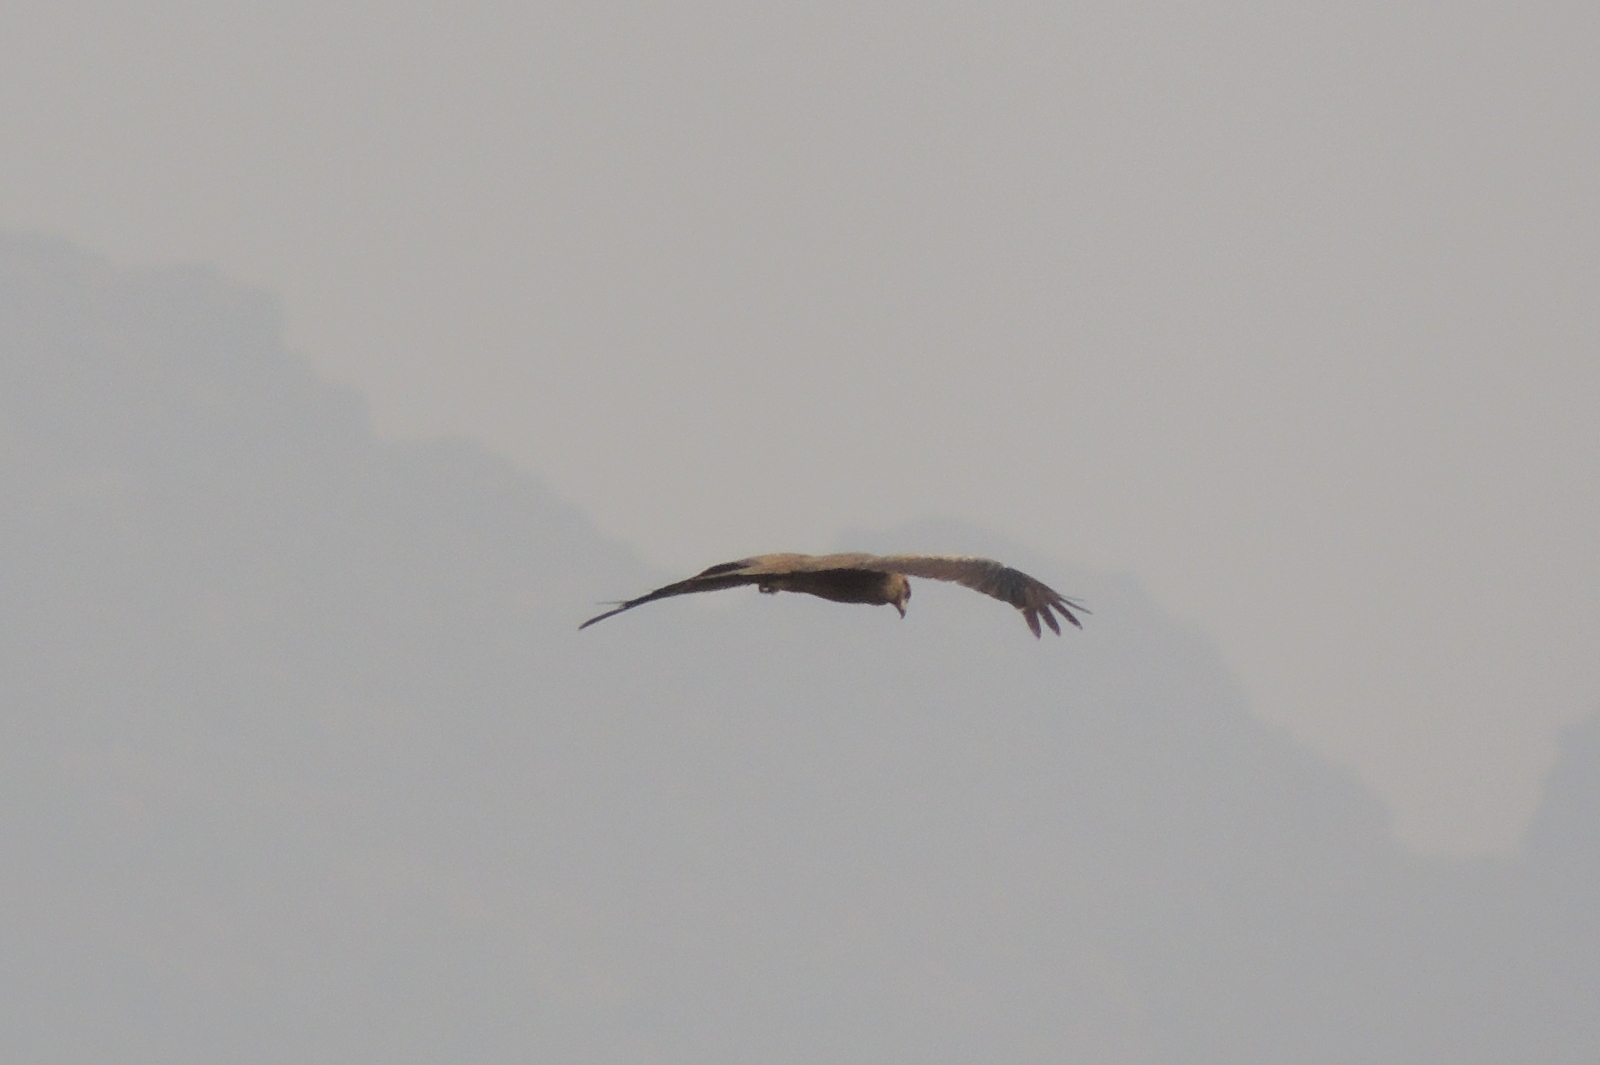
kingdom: Animalia
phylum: Chordata
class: Aves
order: Accipitriformes
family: Accipitridae
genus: Milvus
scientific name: Milvus migrans
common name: Black kite
